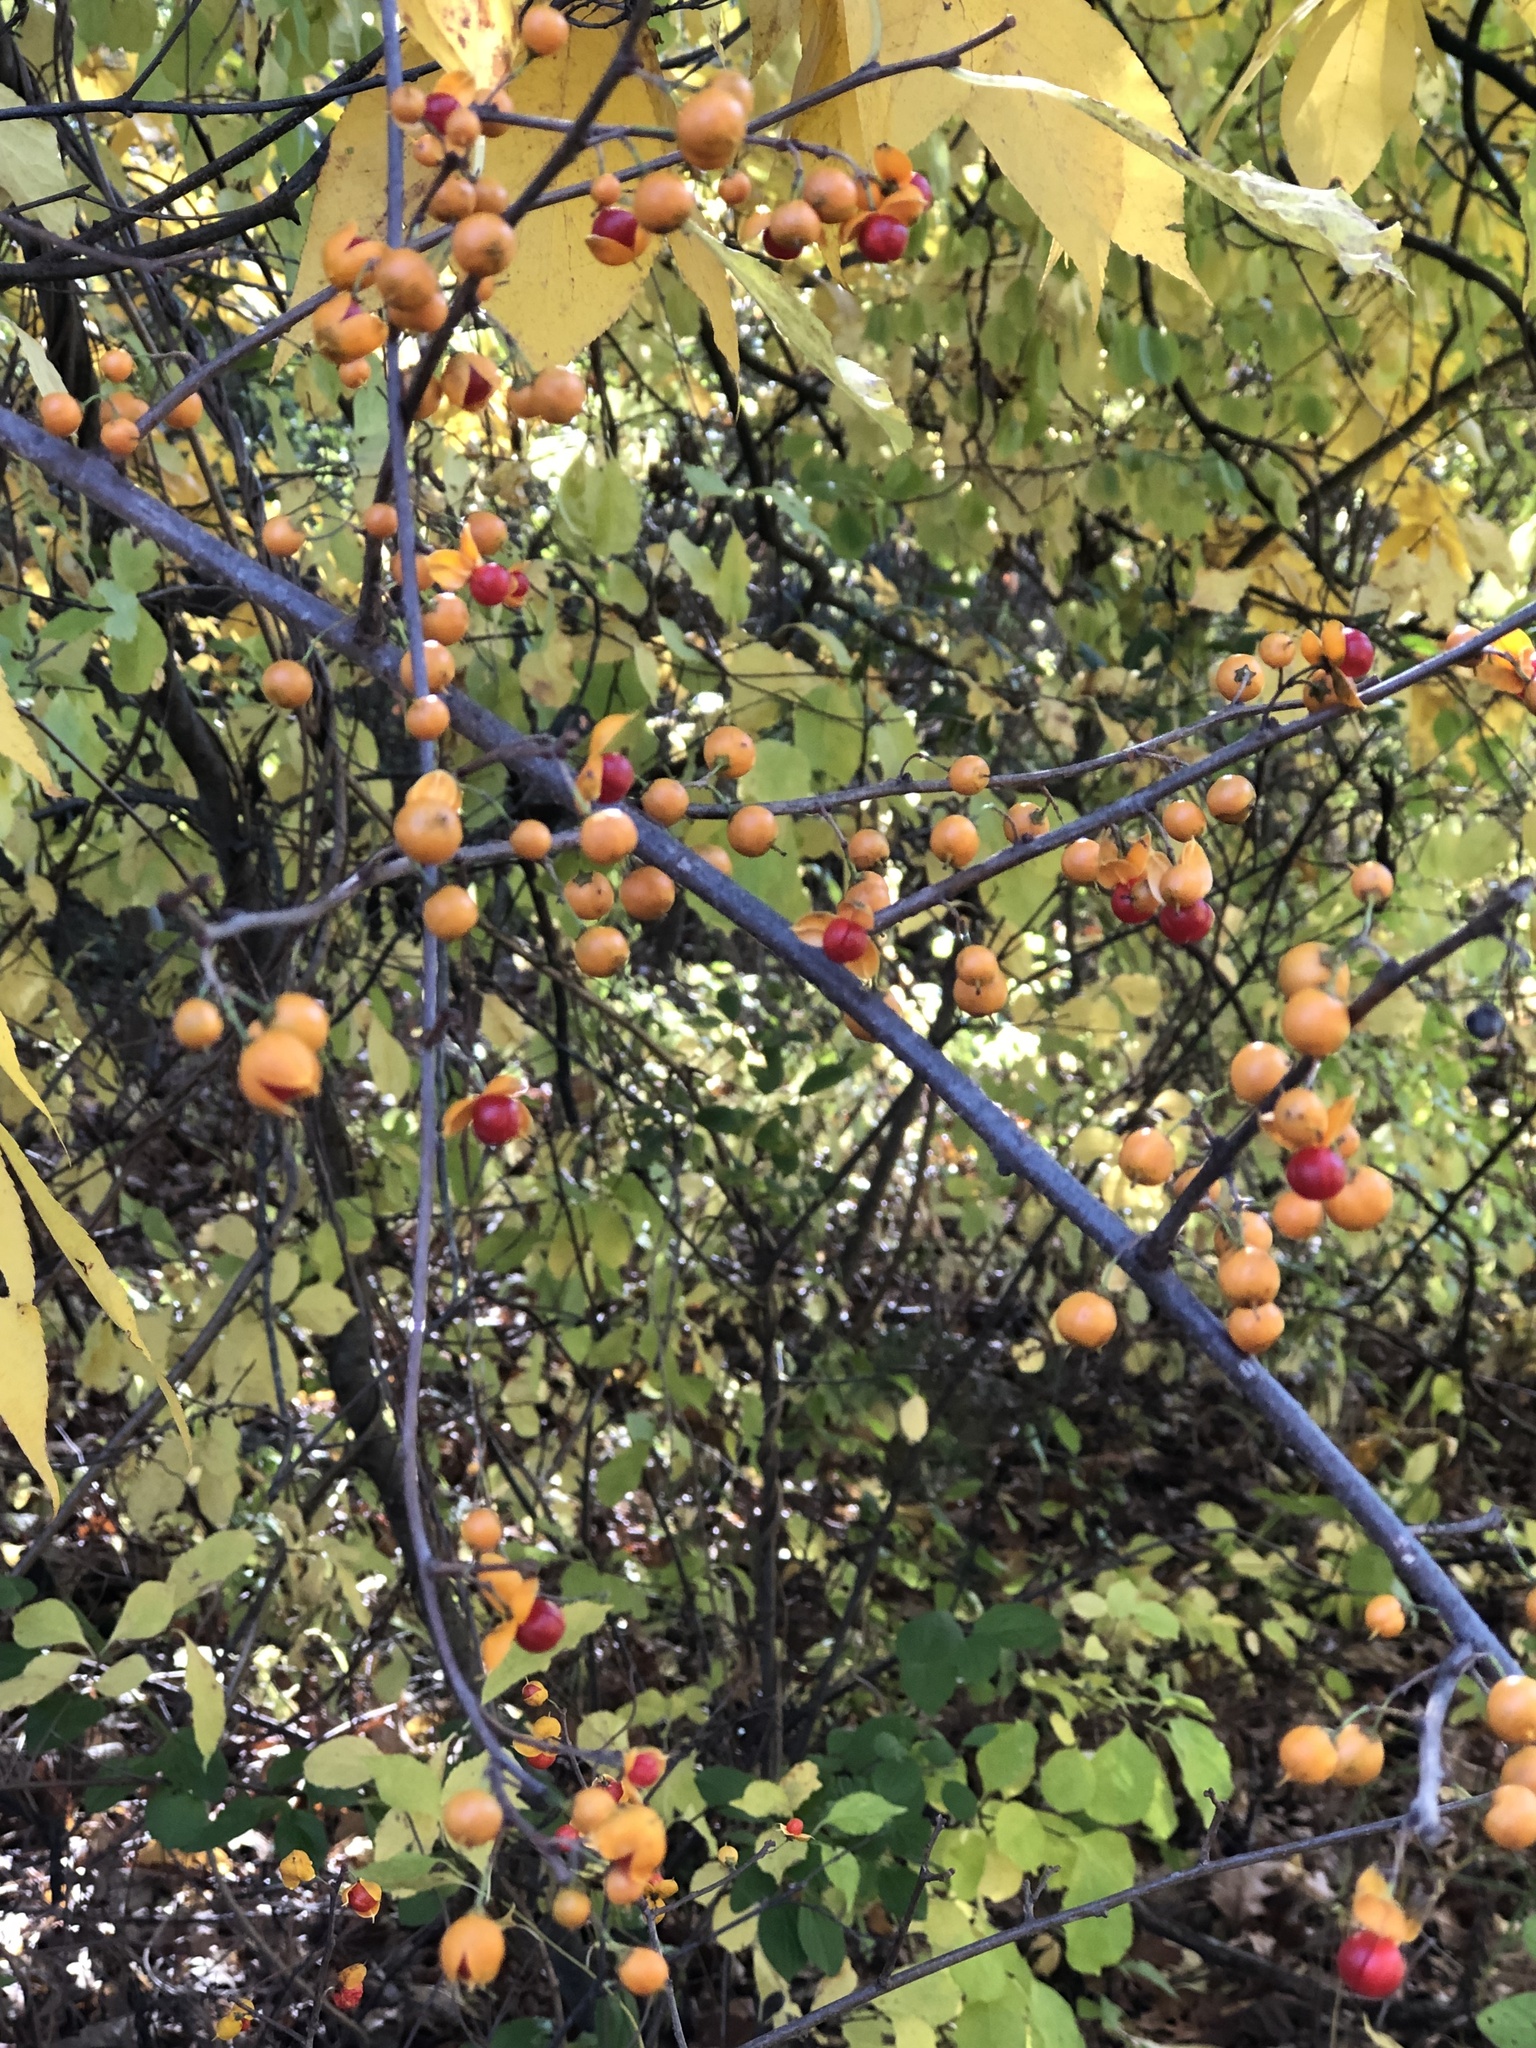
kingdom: Plantae
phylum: Tracheophyta
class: Magnoliopsida
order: Celastrales
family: Celastraceae
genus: Celastrus
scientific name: Celastrus orbiculatus
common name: Oriental bittersweet
